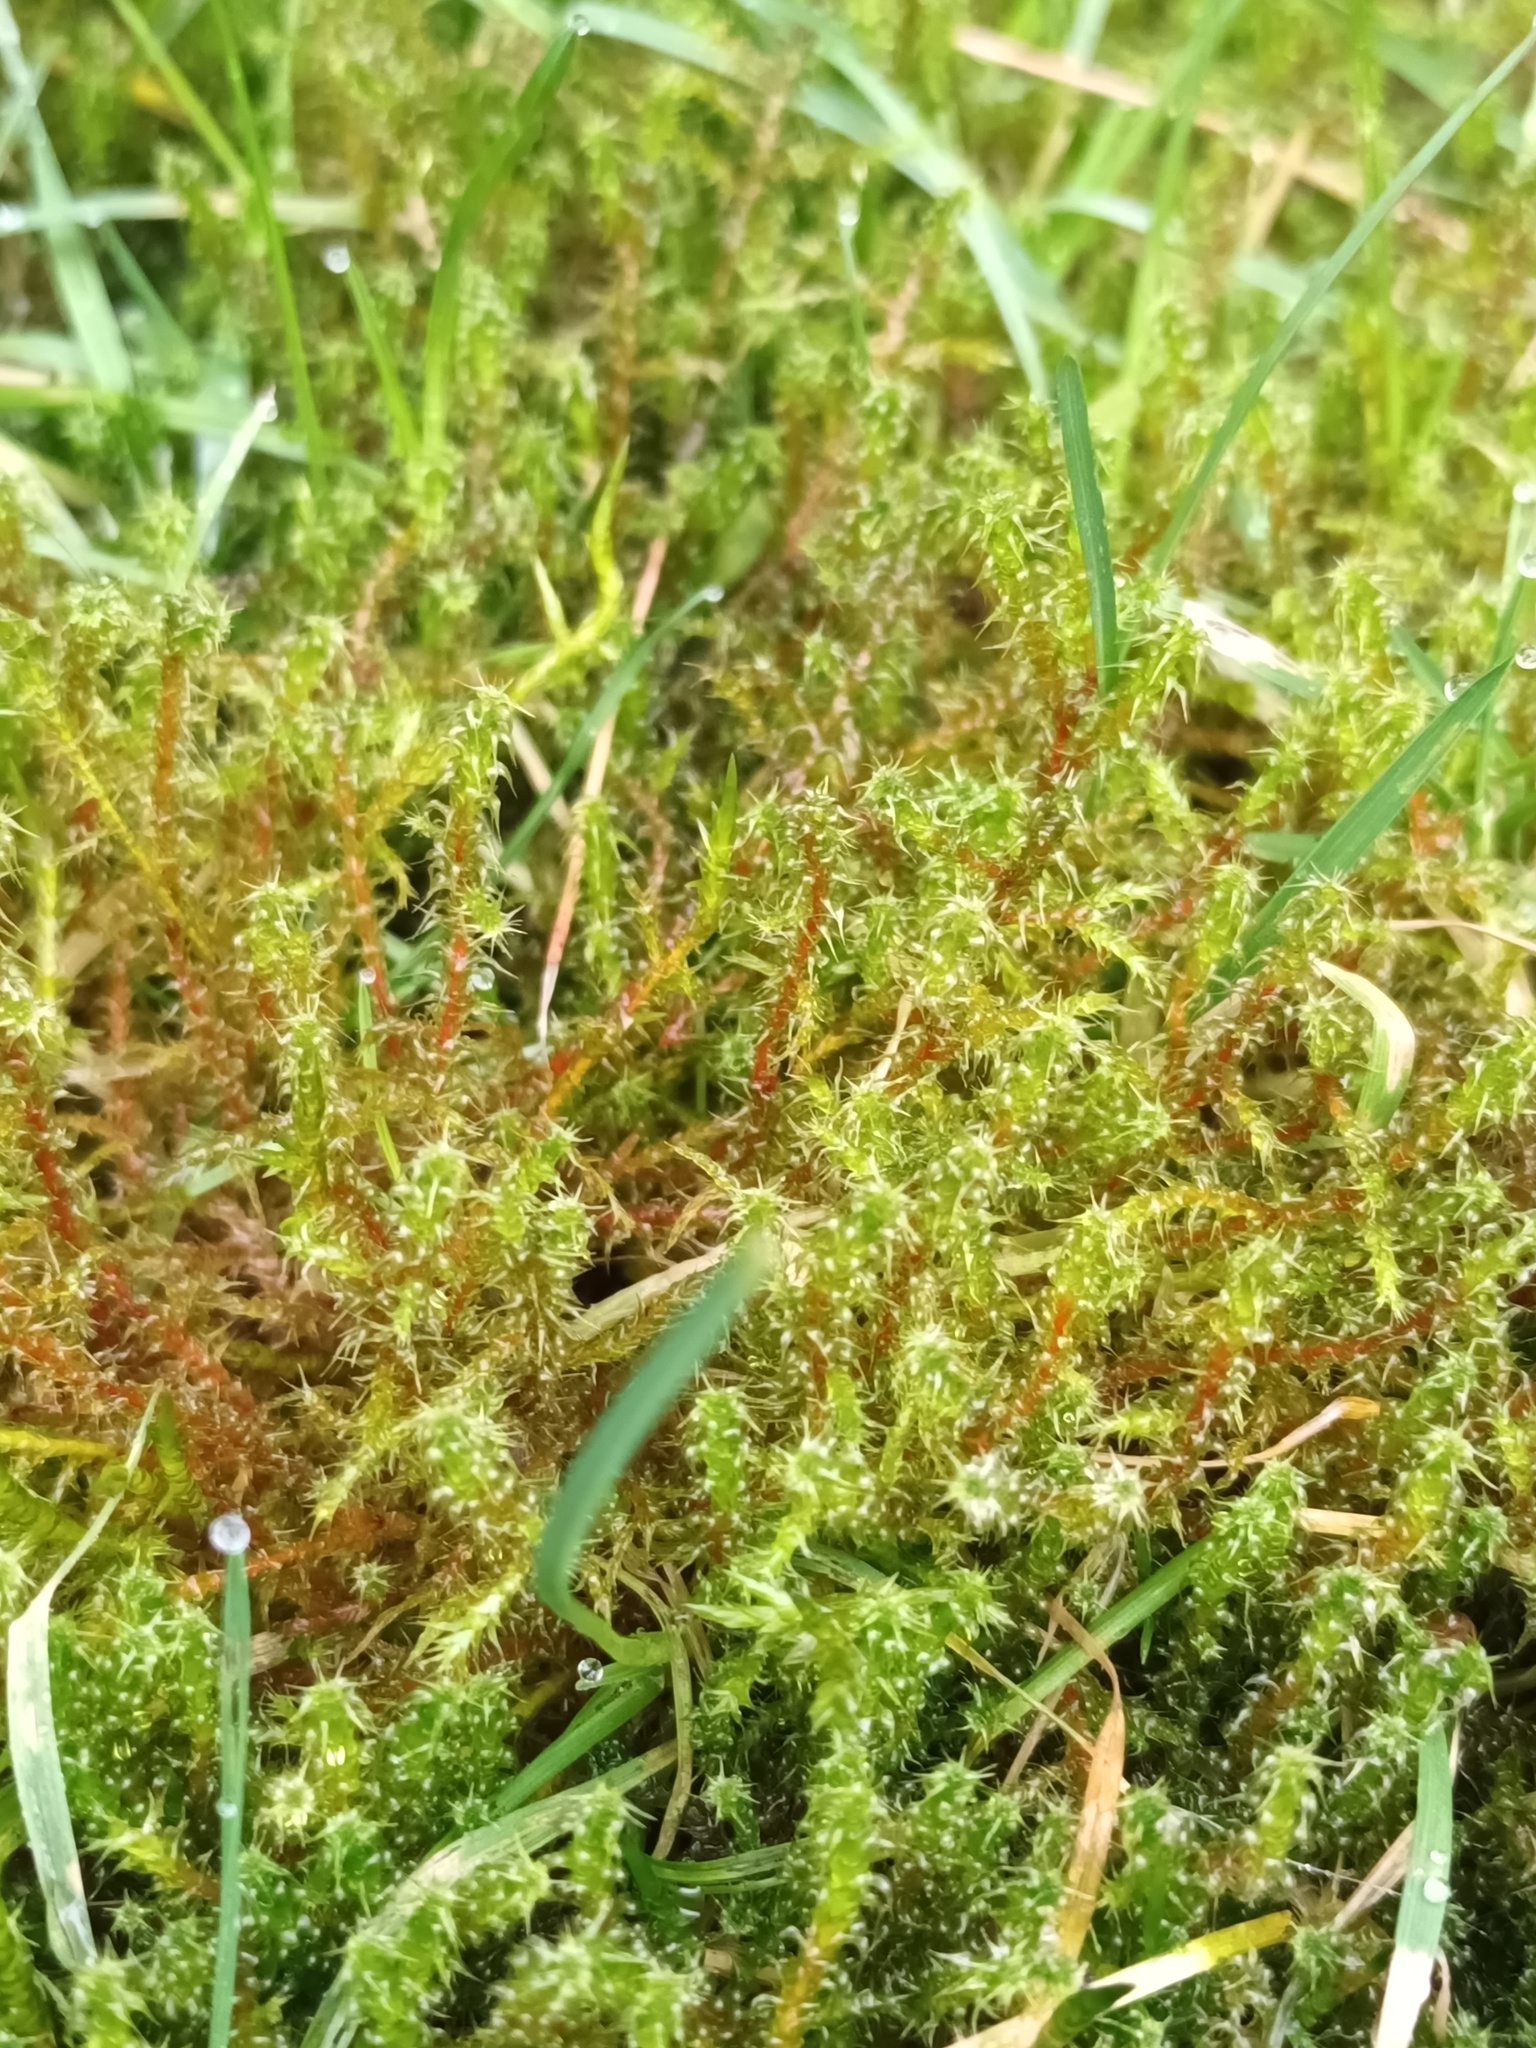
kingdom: Plantae
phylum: Bryophyta
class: Bryopsida
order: Hypnales
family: Hylocomiaceae
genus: Rhytidiadelphus
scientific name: Rhytidiadelphus squarrosus
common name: Springy turf-moss
